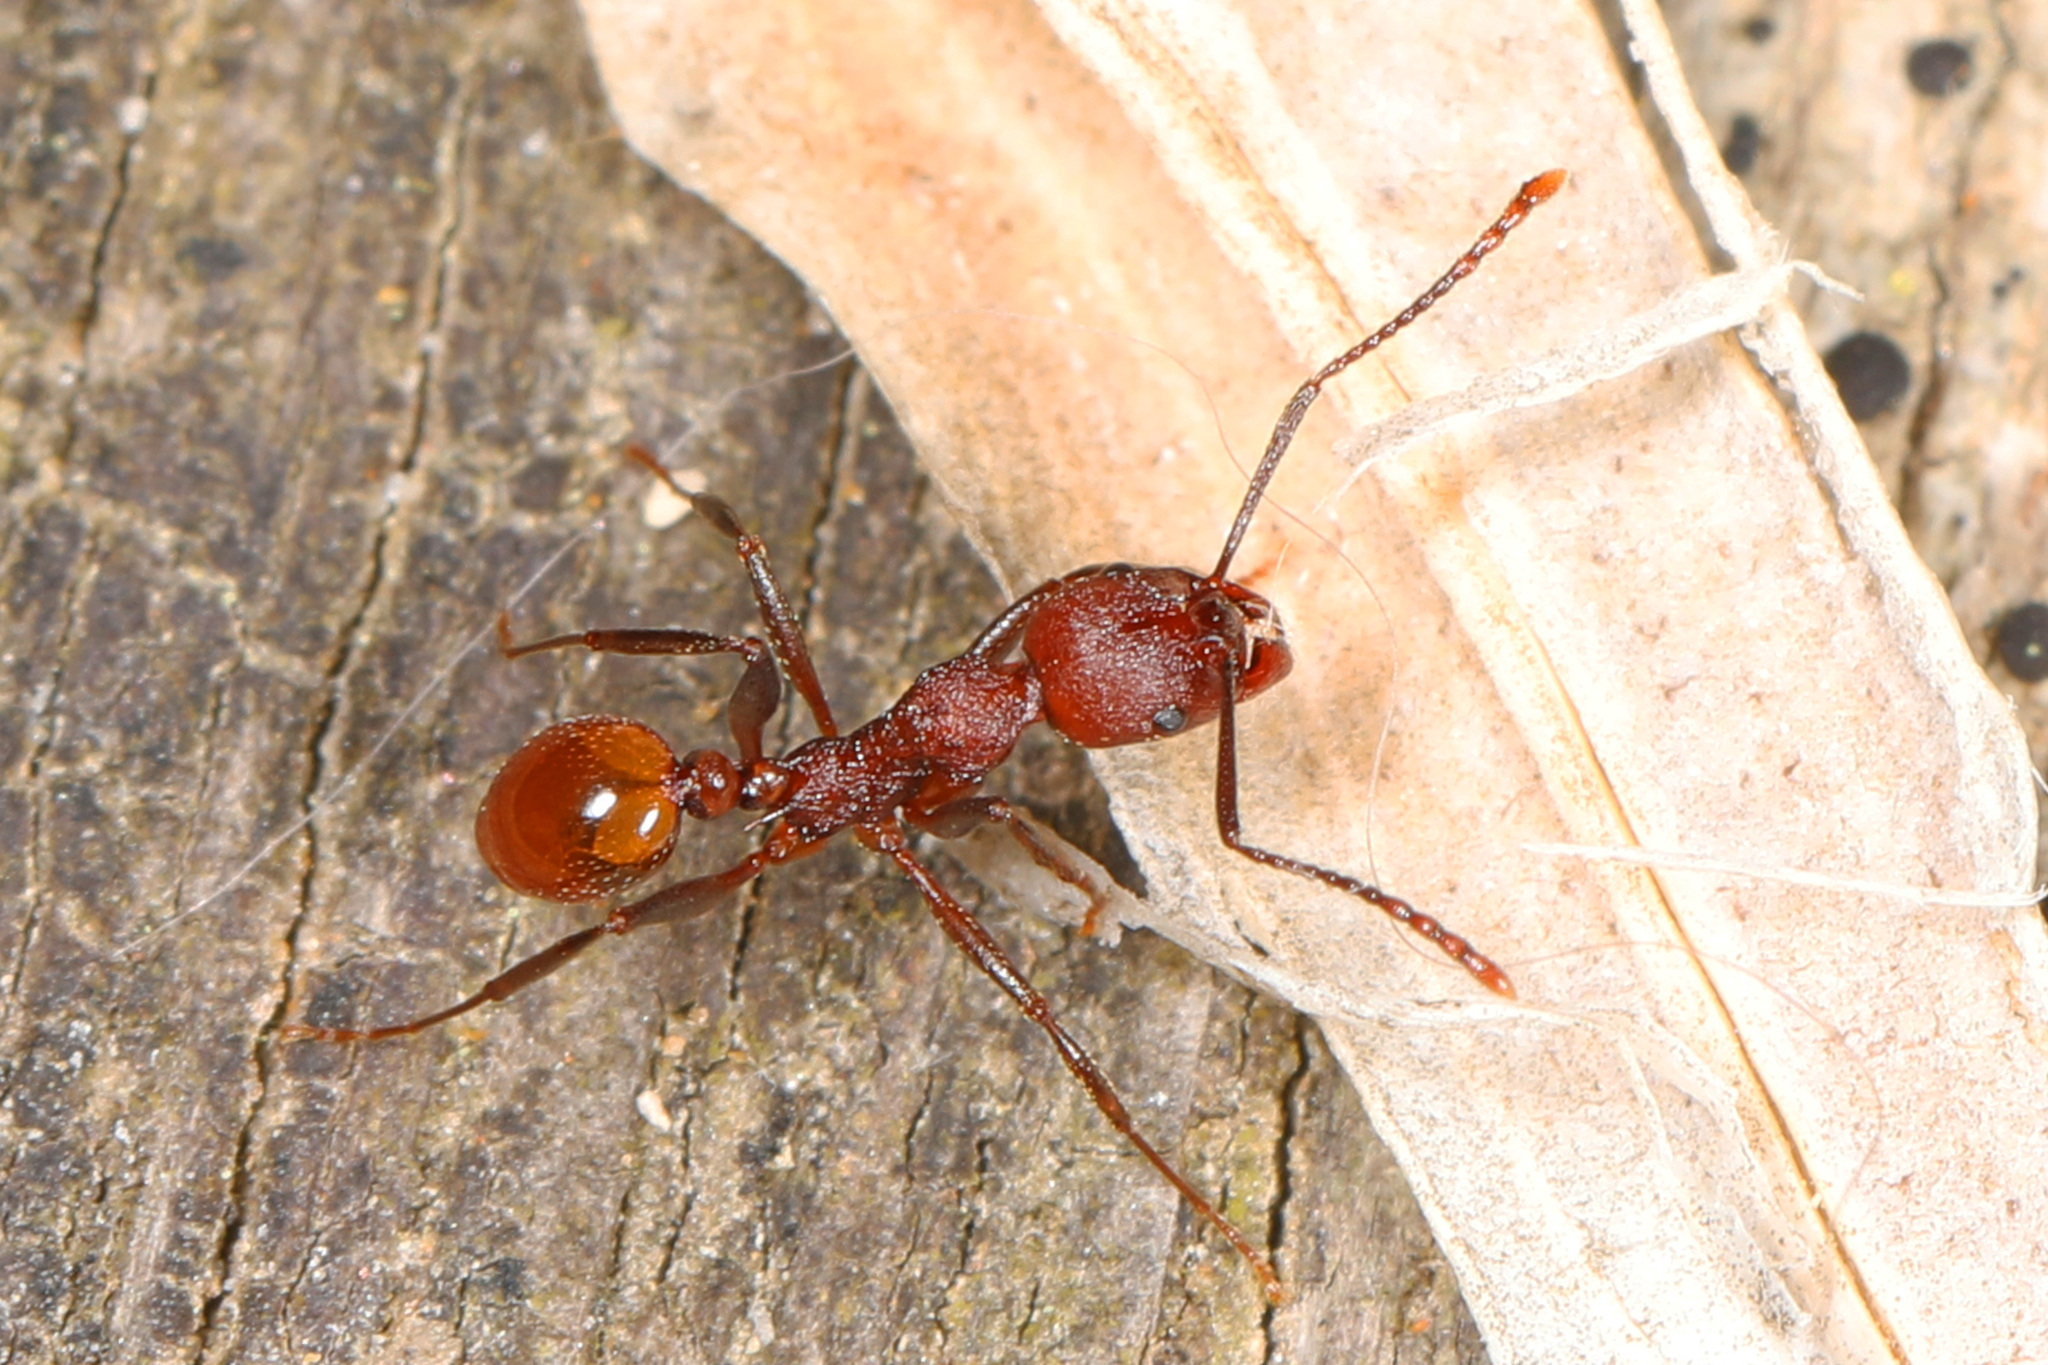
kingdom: Animalia
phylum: Arthropoda
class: Insecta
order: Hymenoptera
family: Formicidae
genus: Aphaenogaster
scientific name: Aphaenogaster tennesseensis
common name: Tennessee thread-waisted ant
